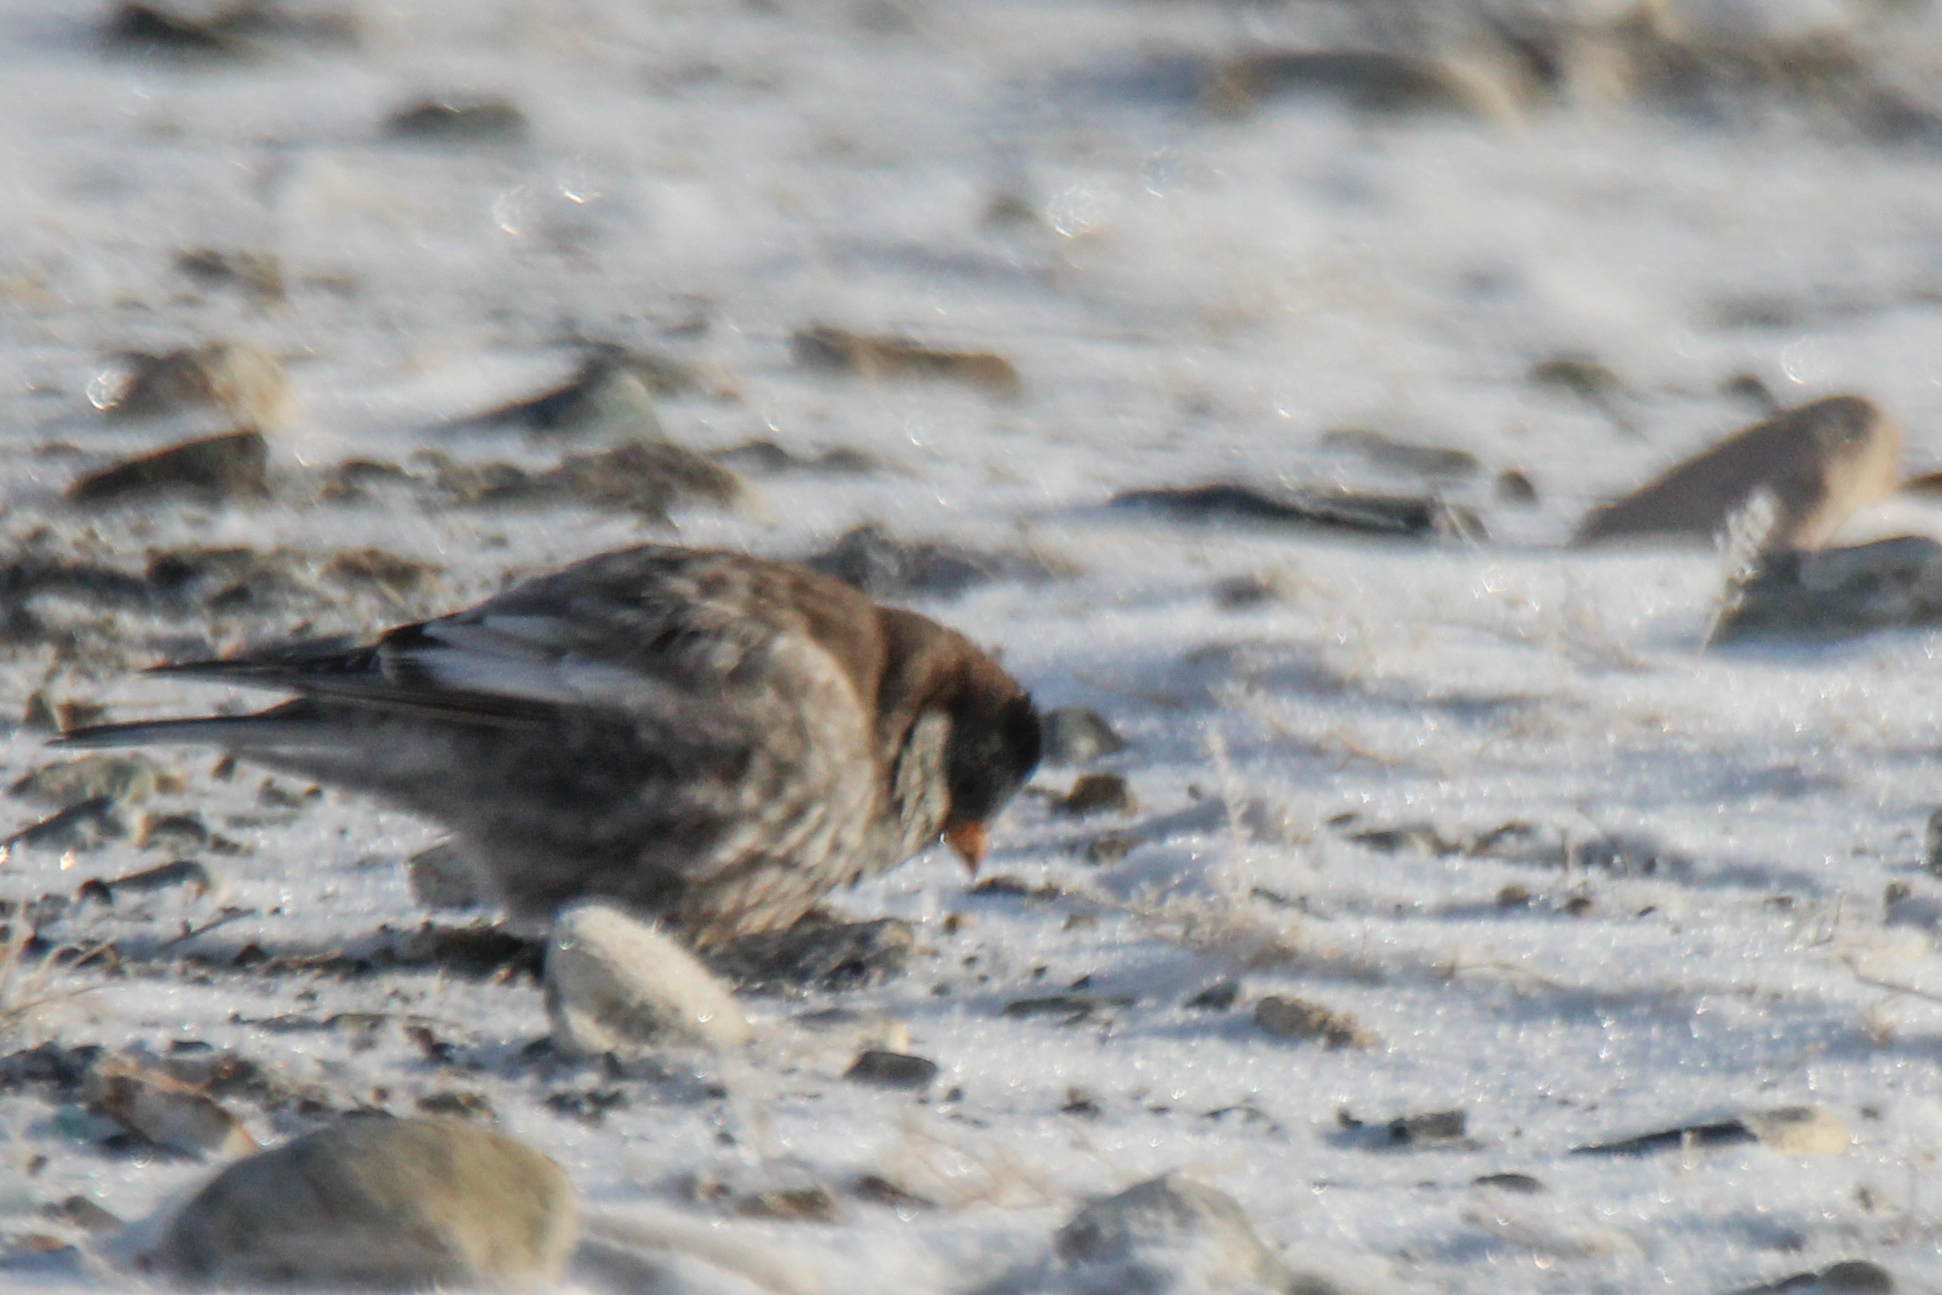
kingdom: Animalia
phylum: Chordata
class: Aves
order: Passeriformes
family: Fringillidae
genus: Leucosticte
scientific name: Leucosticte brandti
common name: Brandt's mountain finch
